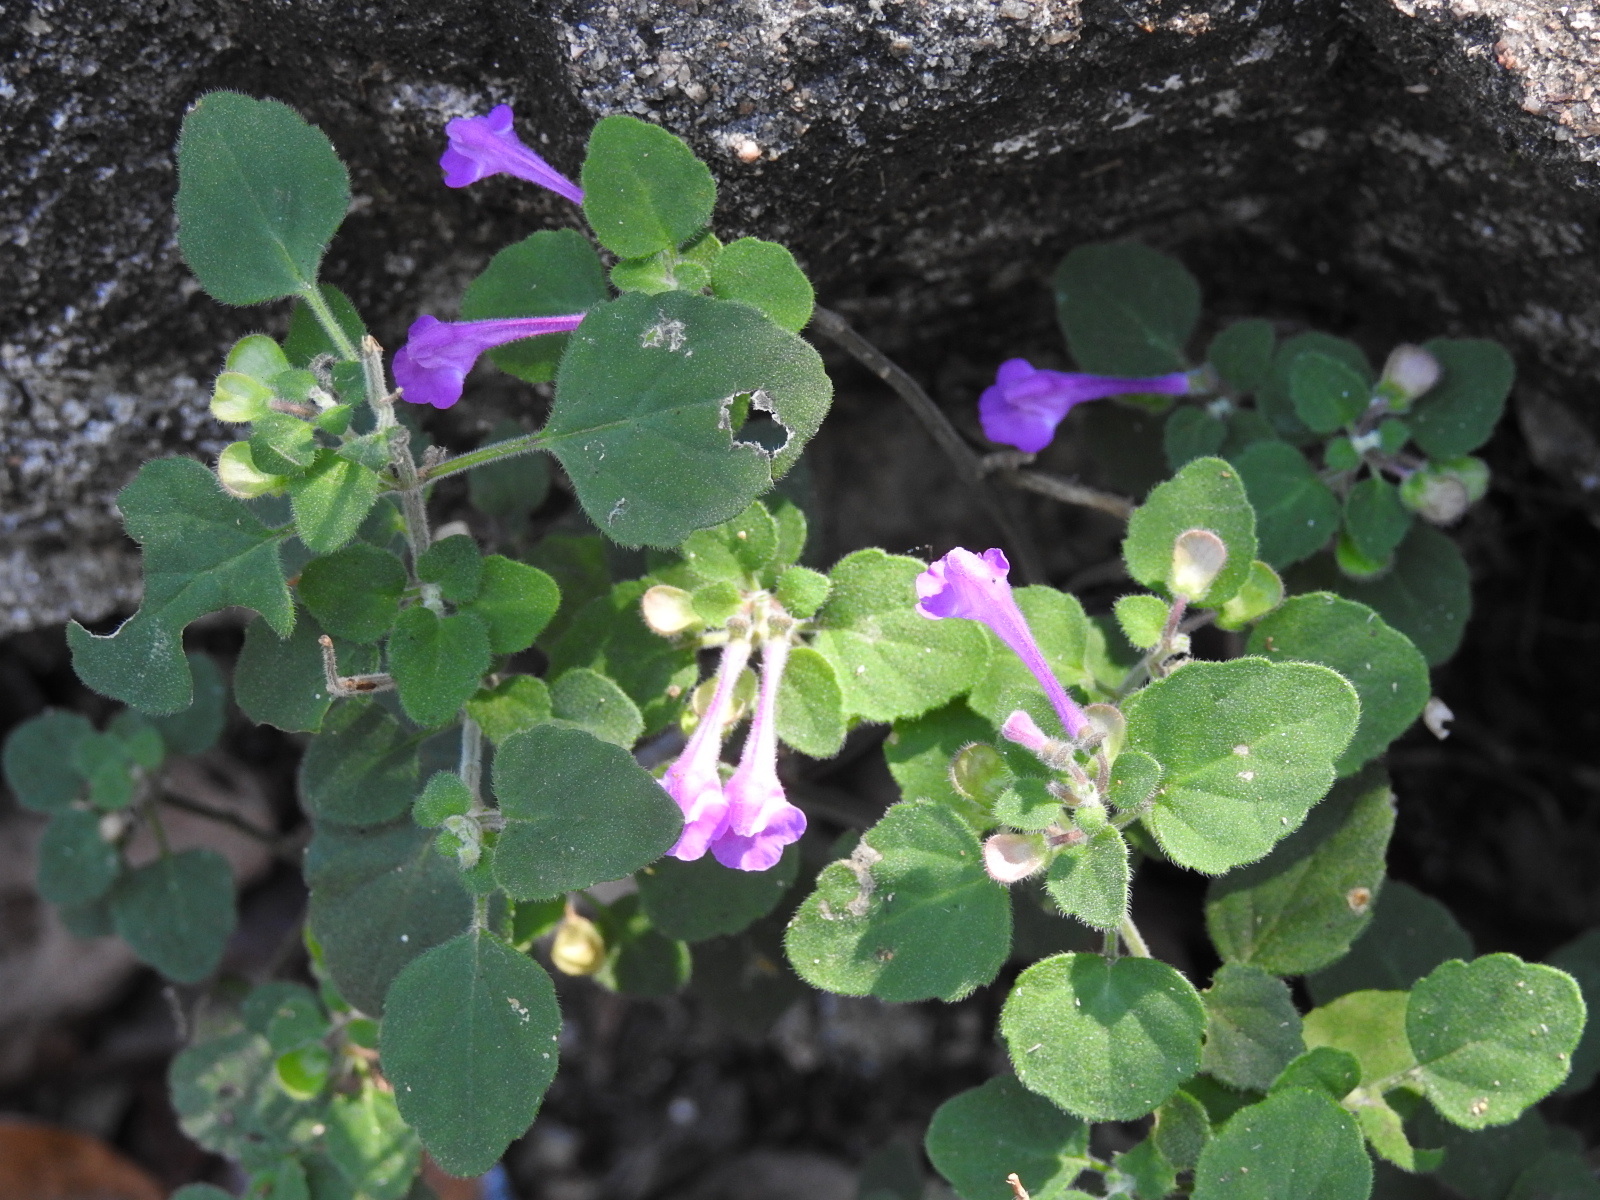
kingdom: Plantae
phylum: Tracheophyta
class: Magnoliopsida
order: Lamiales
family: Lamiaceae
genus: Scutellaria
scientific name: Scutellaria seleriana
